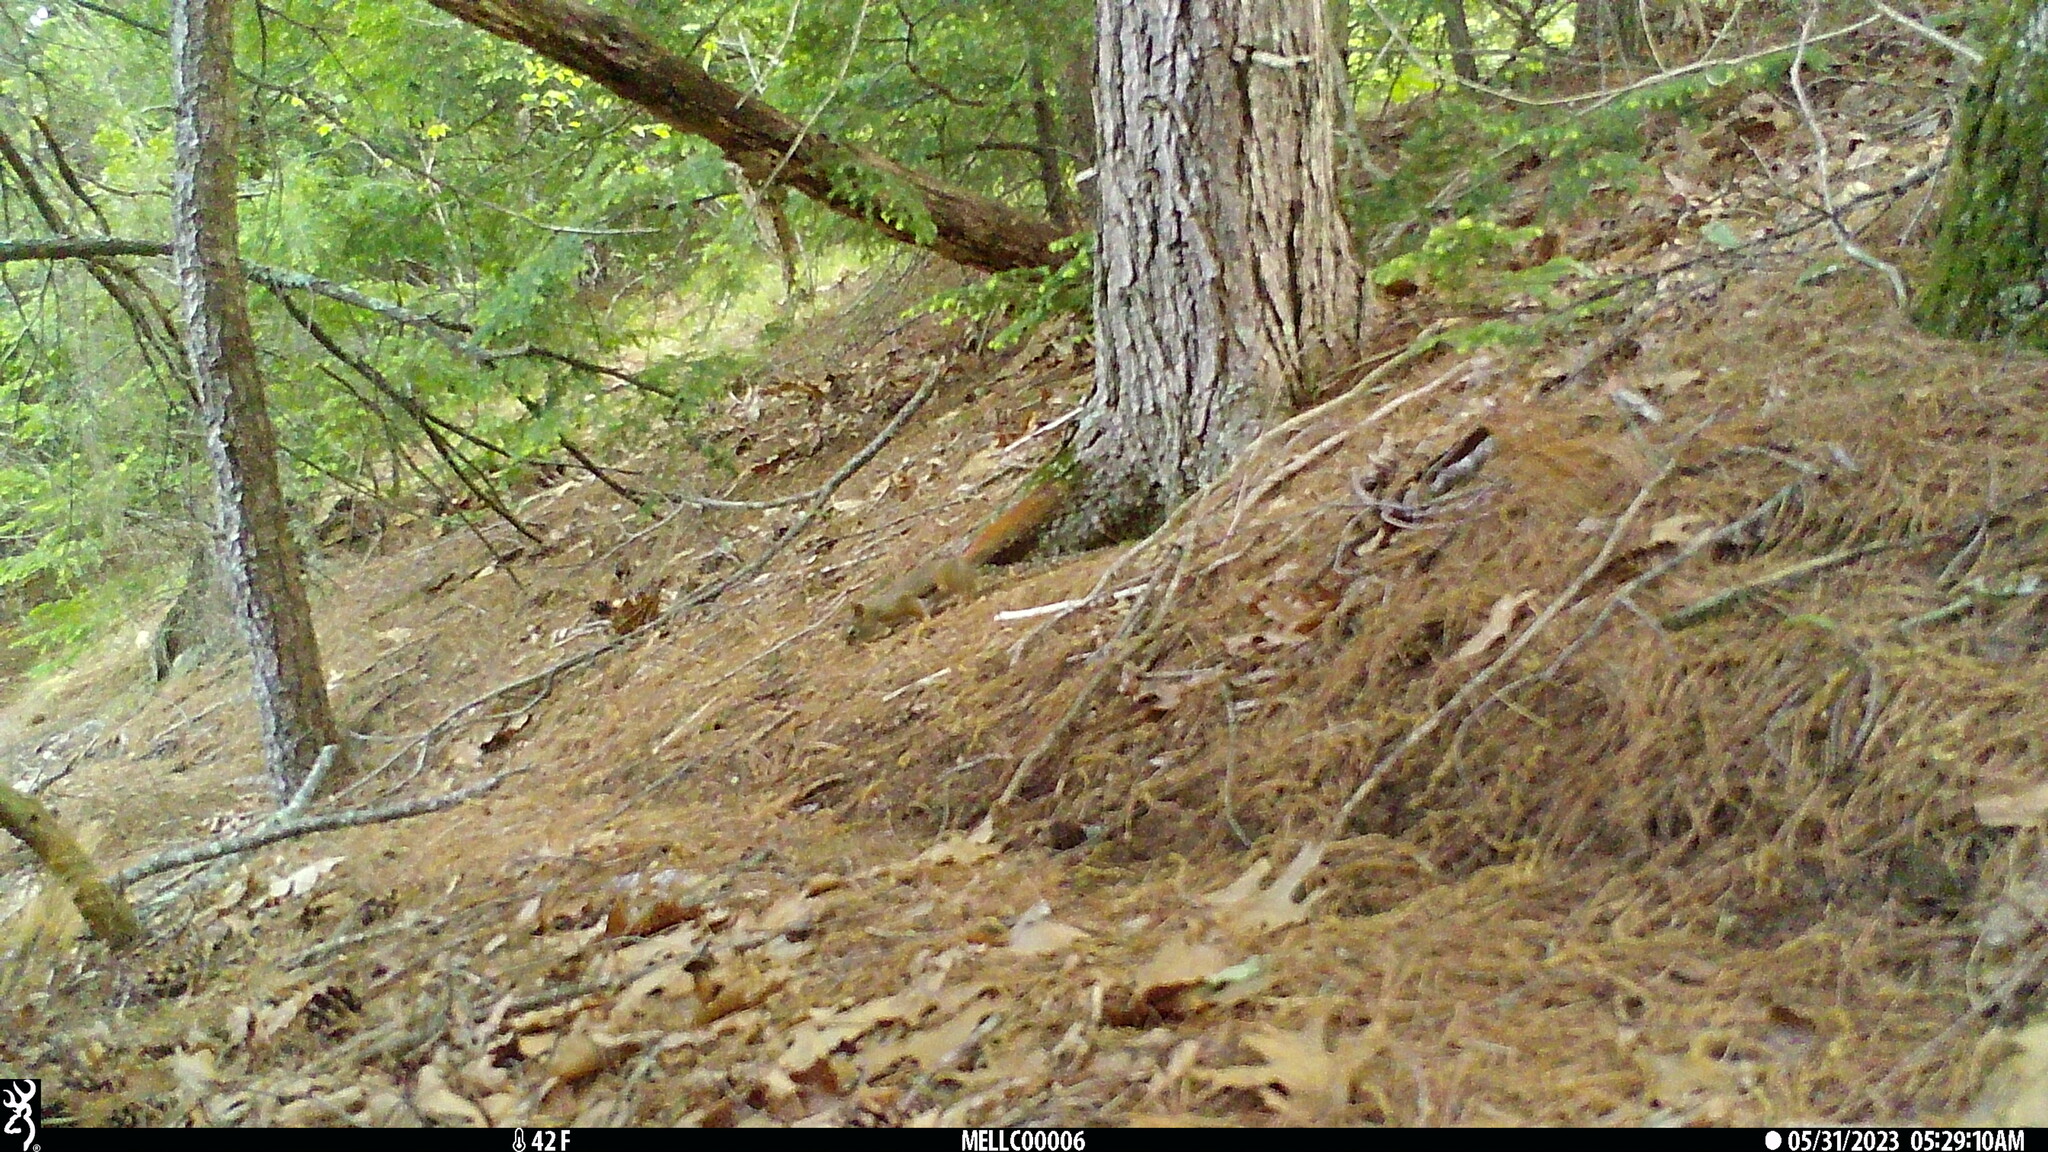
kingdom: Animalia
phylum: Chordata
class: Mammalia
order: Rodentia
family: Sciuridae
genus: Tamiasciurus
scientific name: Tamiasciurus hudsonicus
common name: Red squirrel
